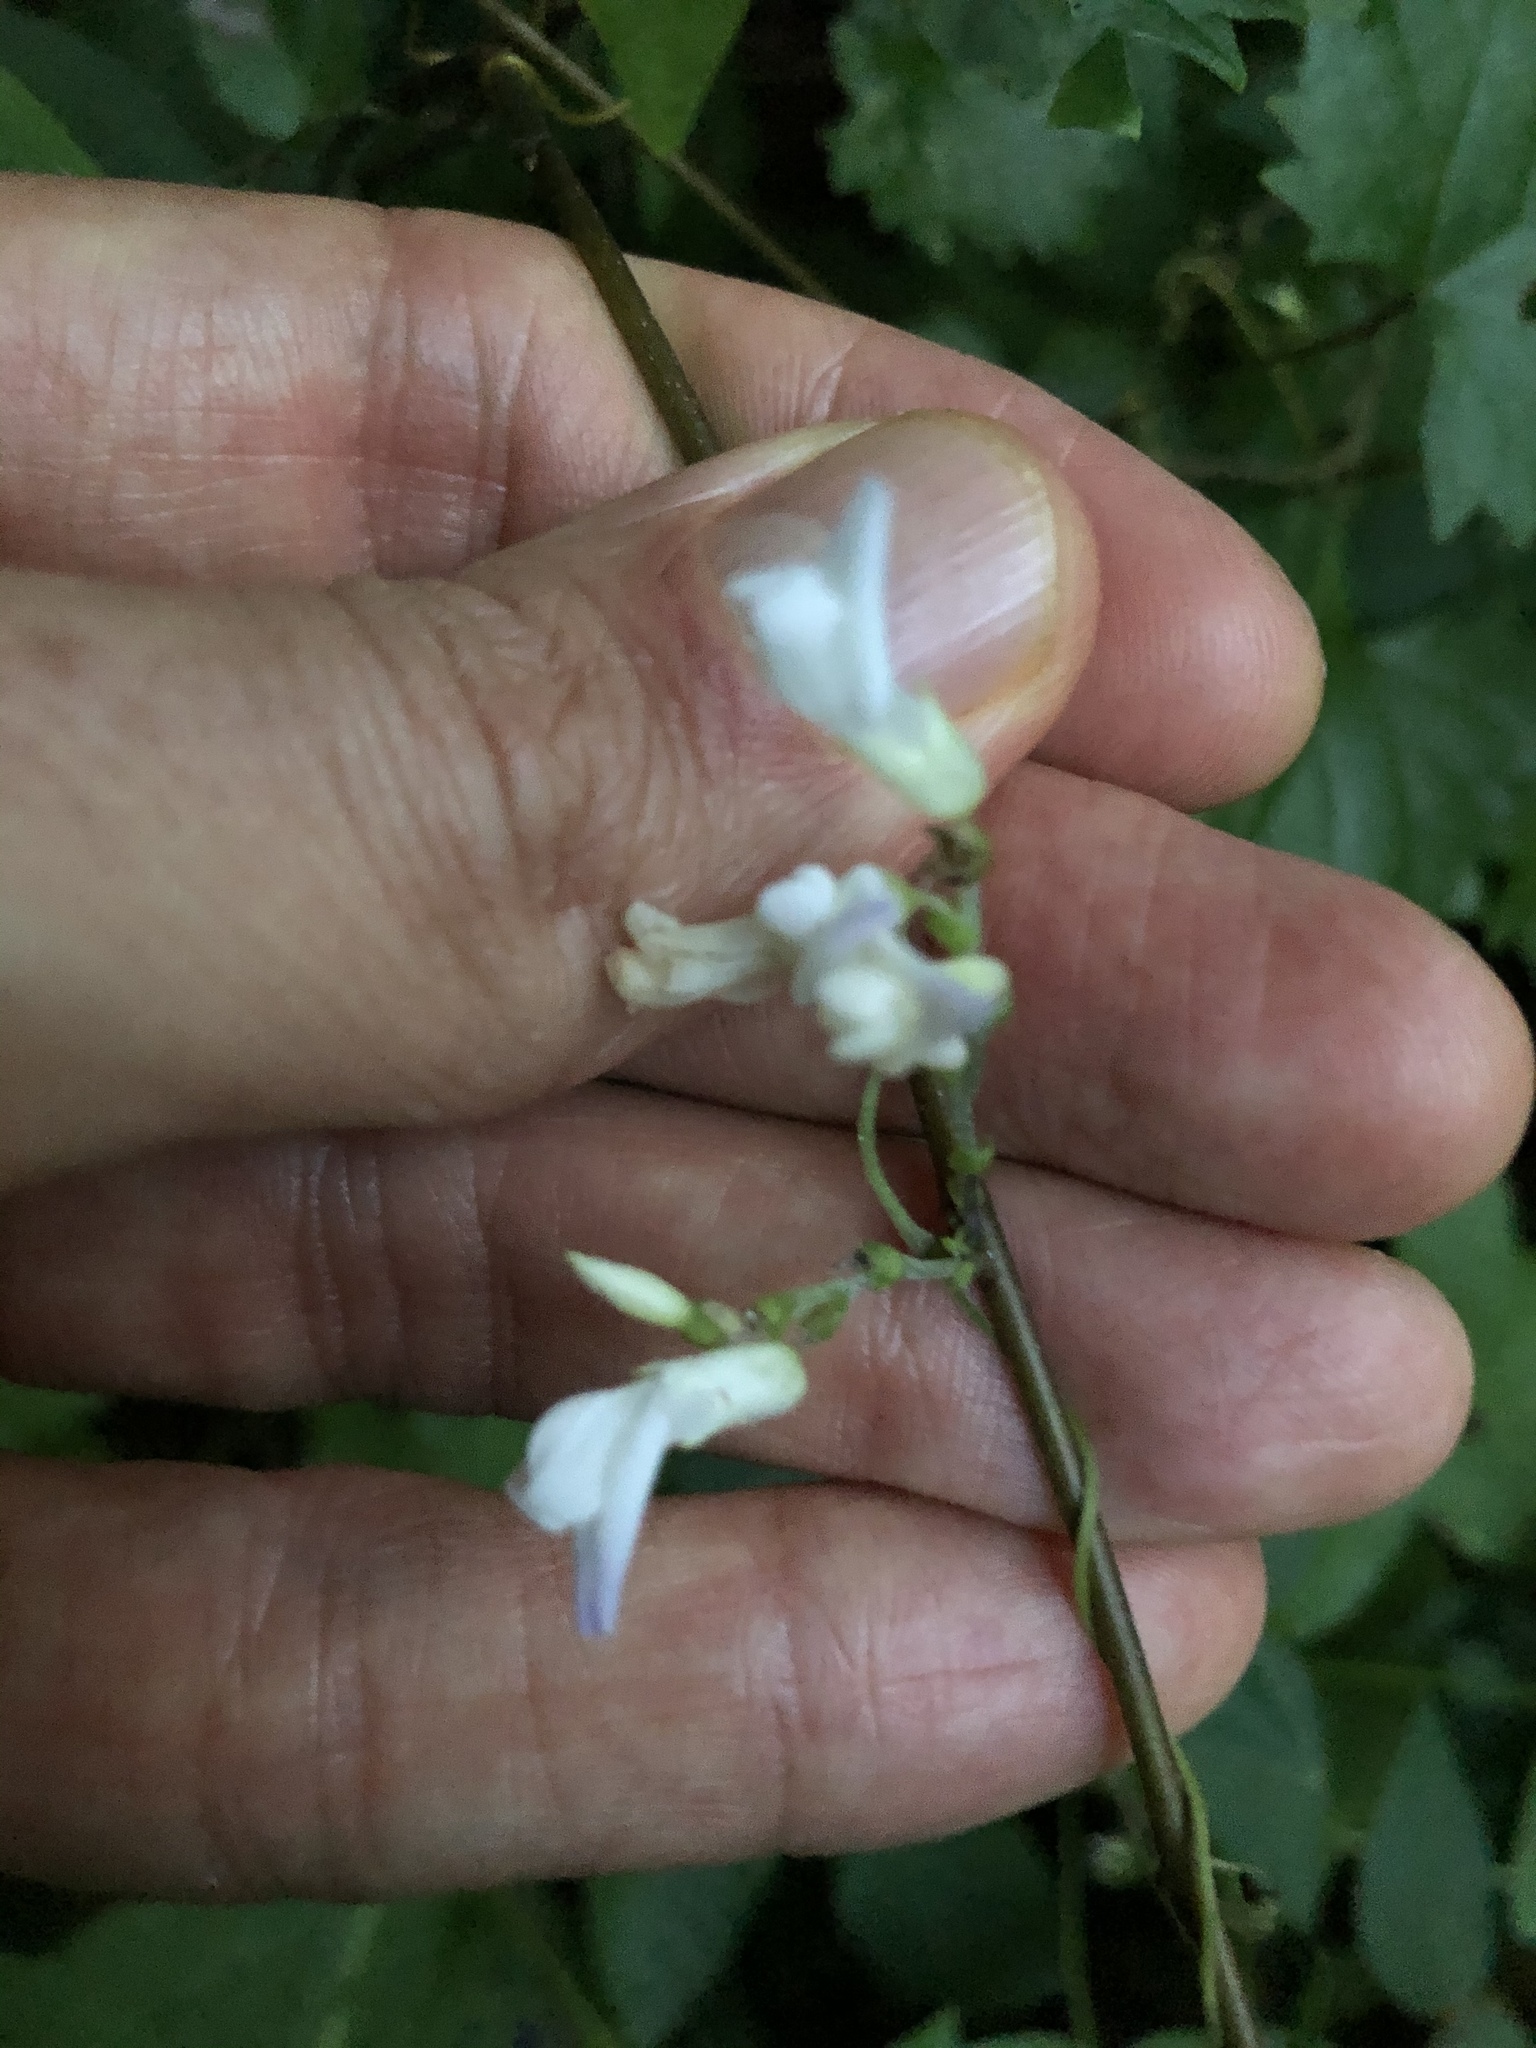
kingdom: Plantae
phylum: Tracheophyta
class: Magnoliopsida
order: Fabales
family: Fabaceae
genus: Amphicarpaea
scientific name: Amphicarpaea bracteata
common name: American hog peanut
